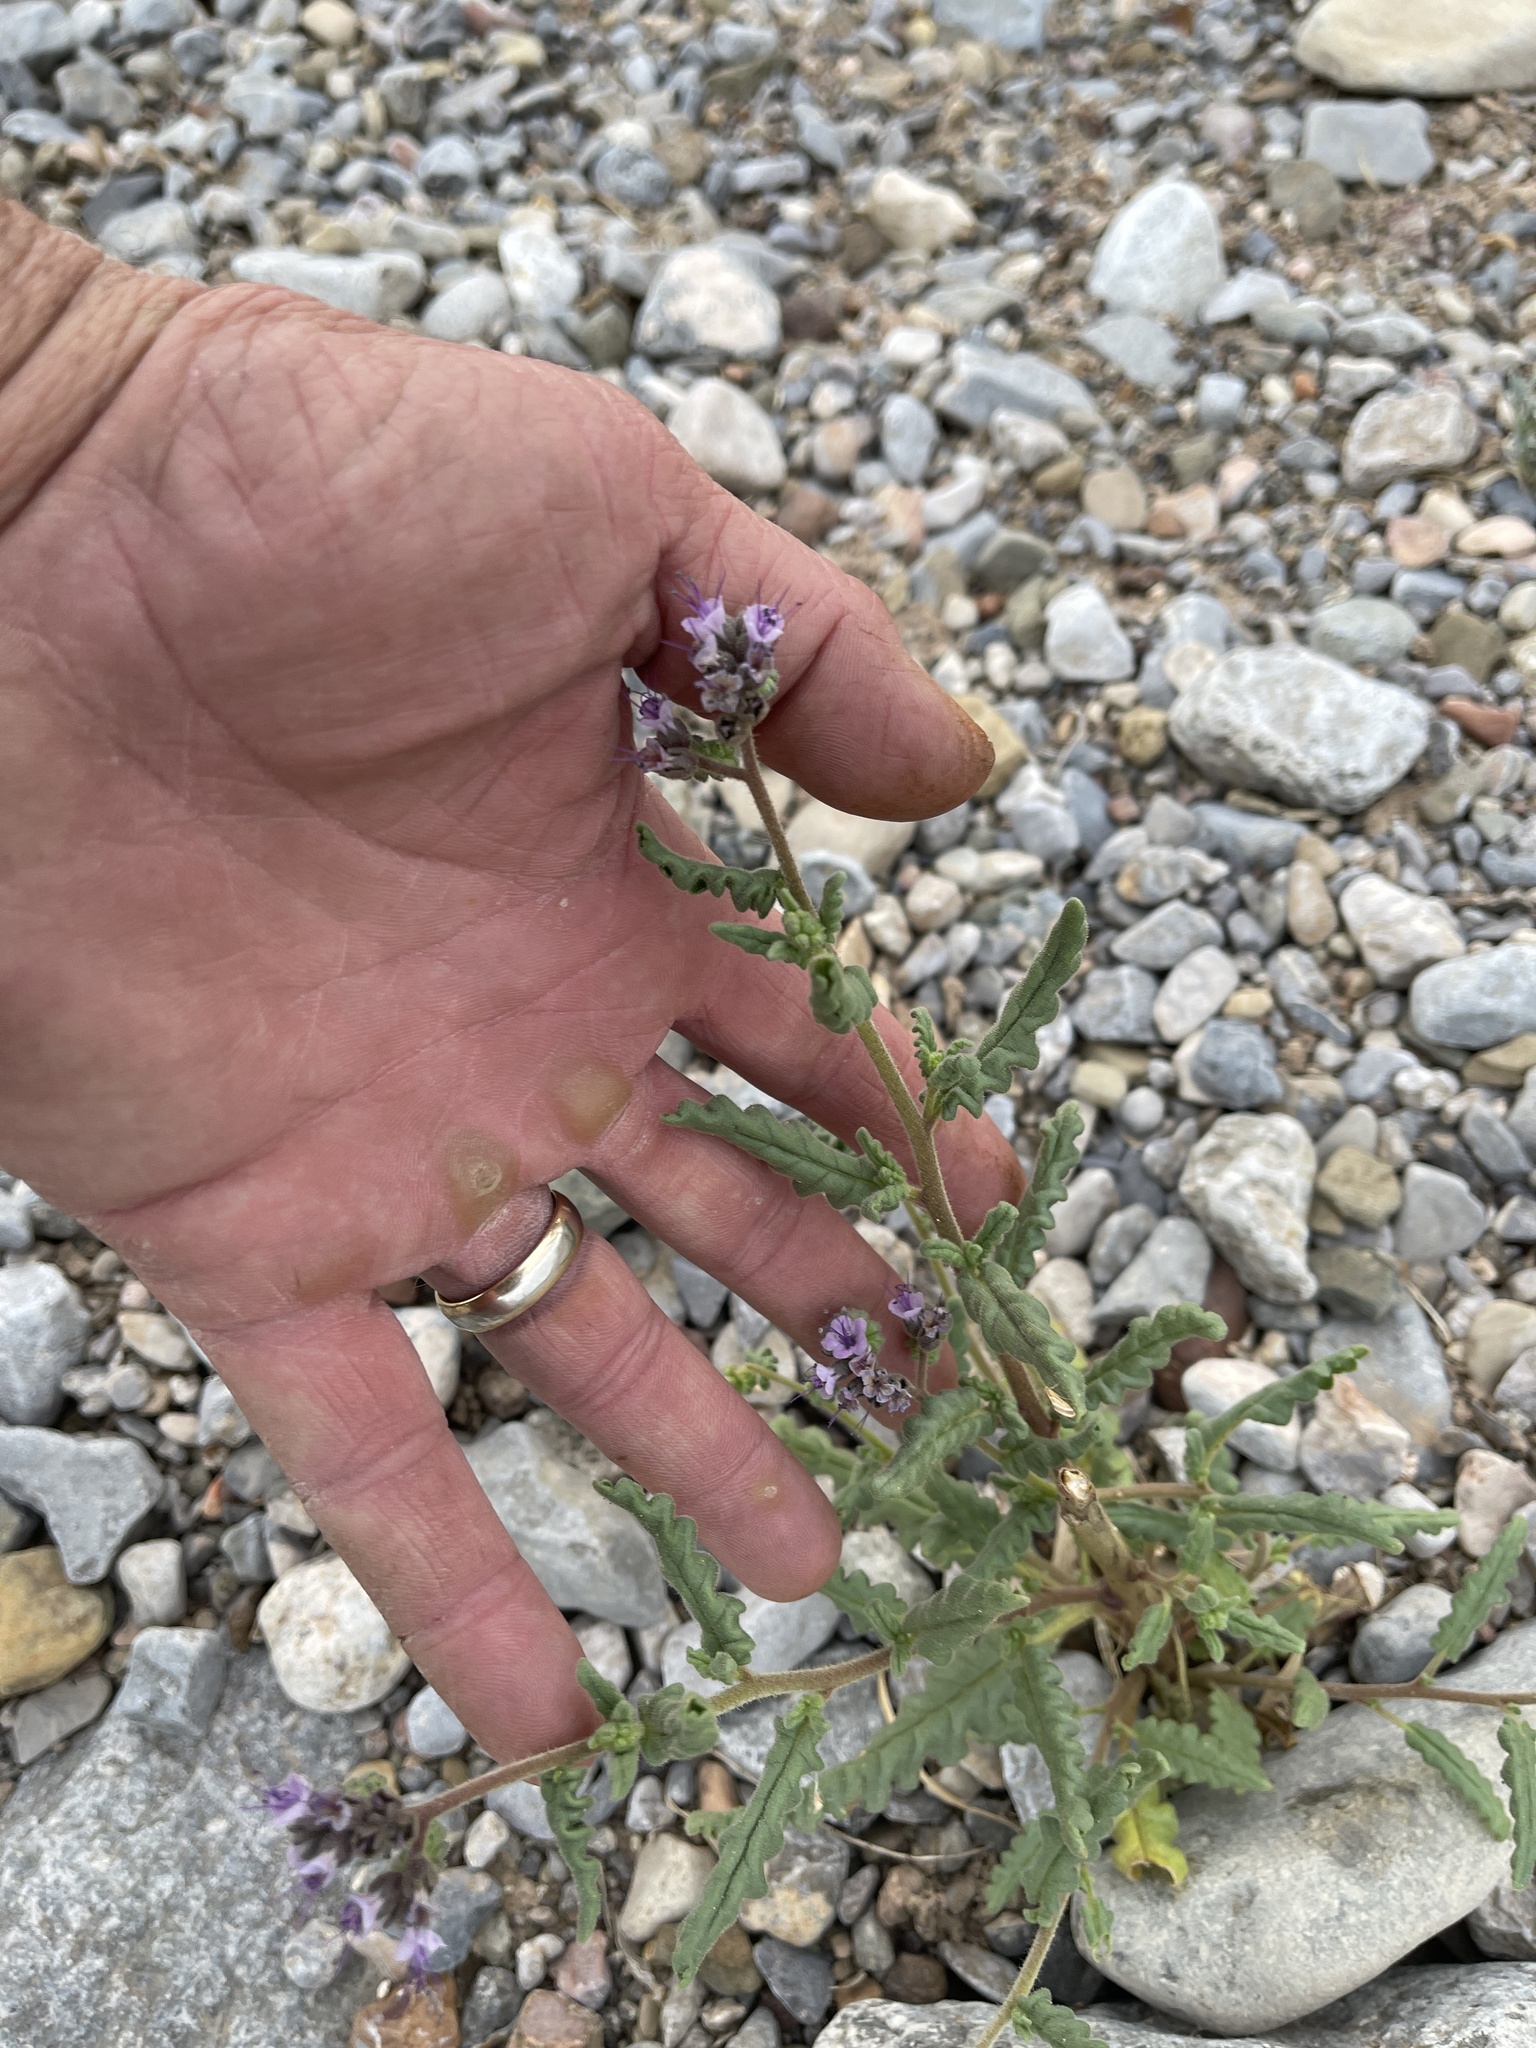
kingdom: Plantae
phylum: Tracheophyta
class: Magnoliopsida
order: Boraginales
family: Hydrophyllaceae
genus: Phacelia
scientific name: Phacelia integrifolia
